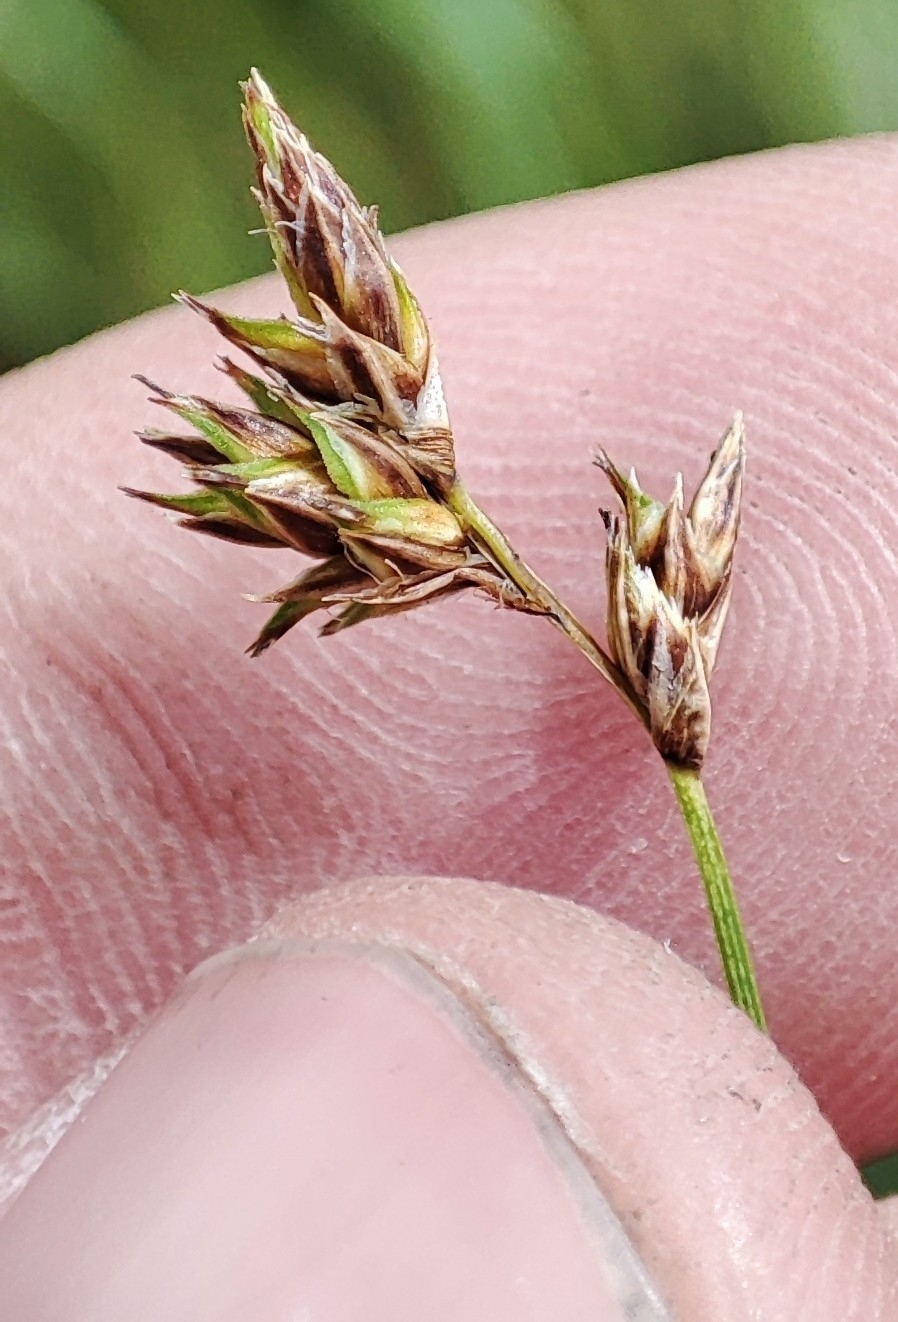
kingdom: Plantae
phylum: Tracheophyta
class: Liliopsida
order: Poales
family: Cyperaceae
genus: Carex
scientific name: Carex praecox
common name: Early sedge
